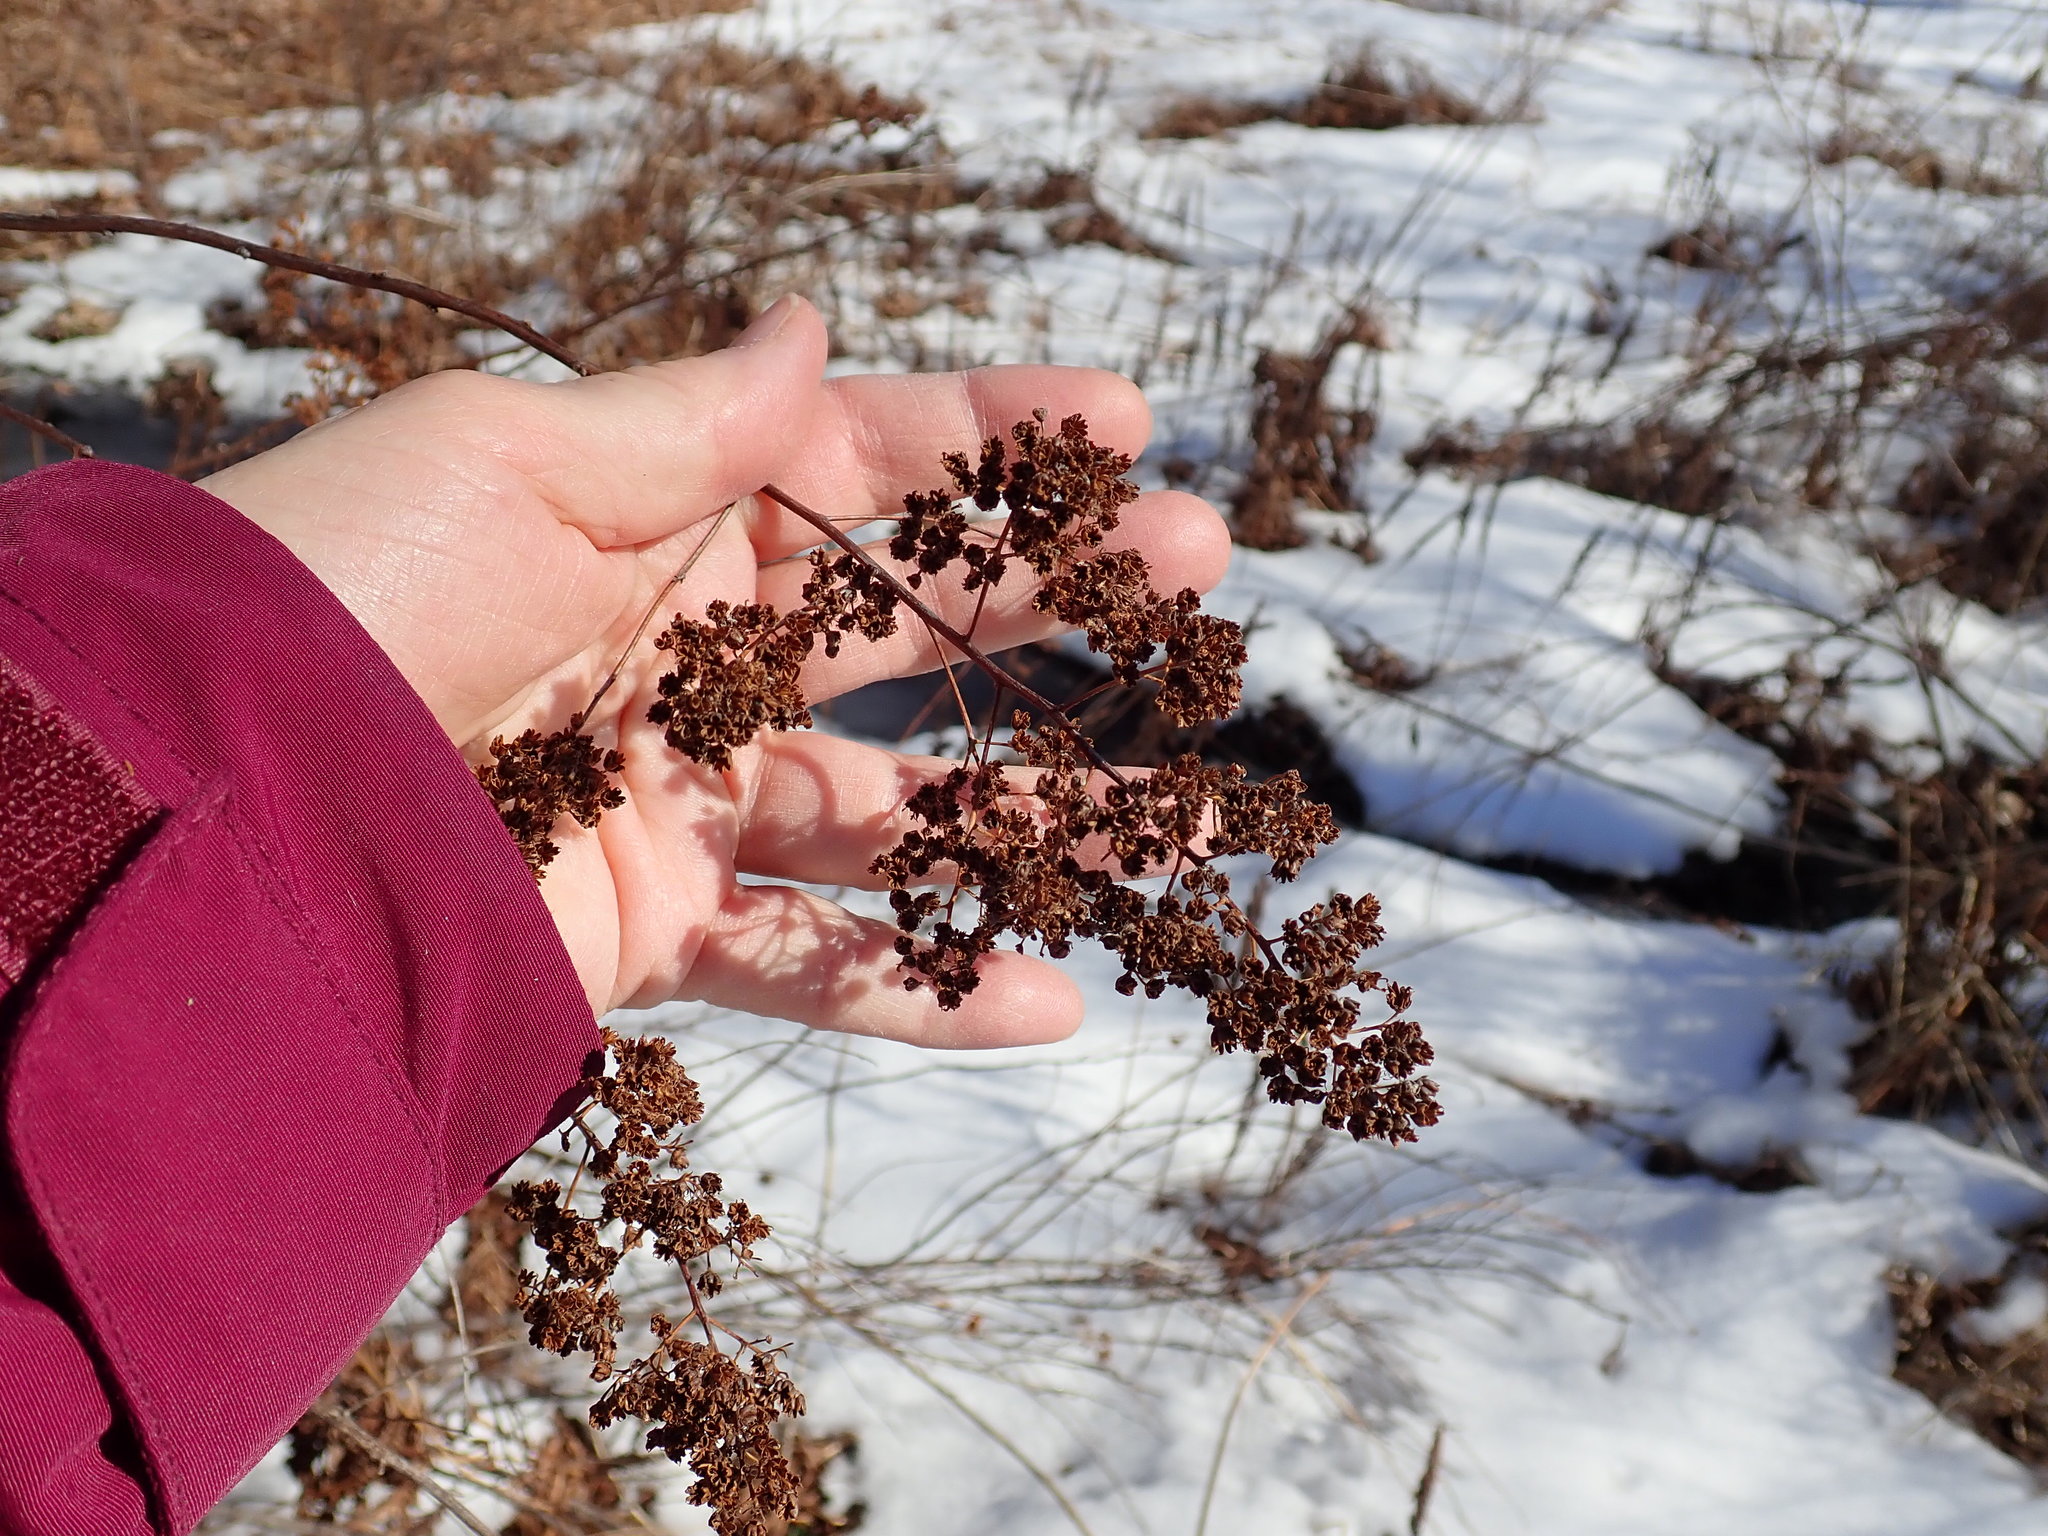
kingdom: Plantae
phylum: Tracheophyta
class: Magnoliopsida
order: Rosales
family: Rosaceae
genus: Spiraea
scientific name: Spiraea alba
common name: Pale bridewort
